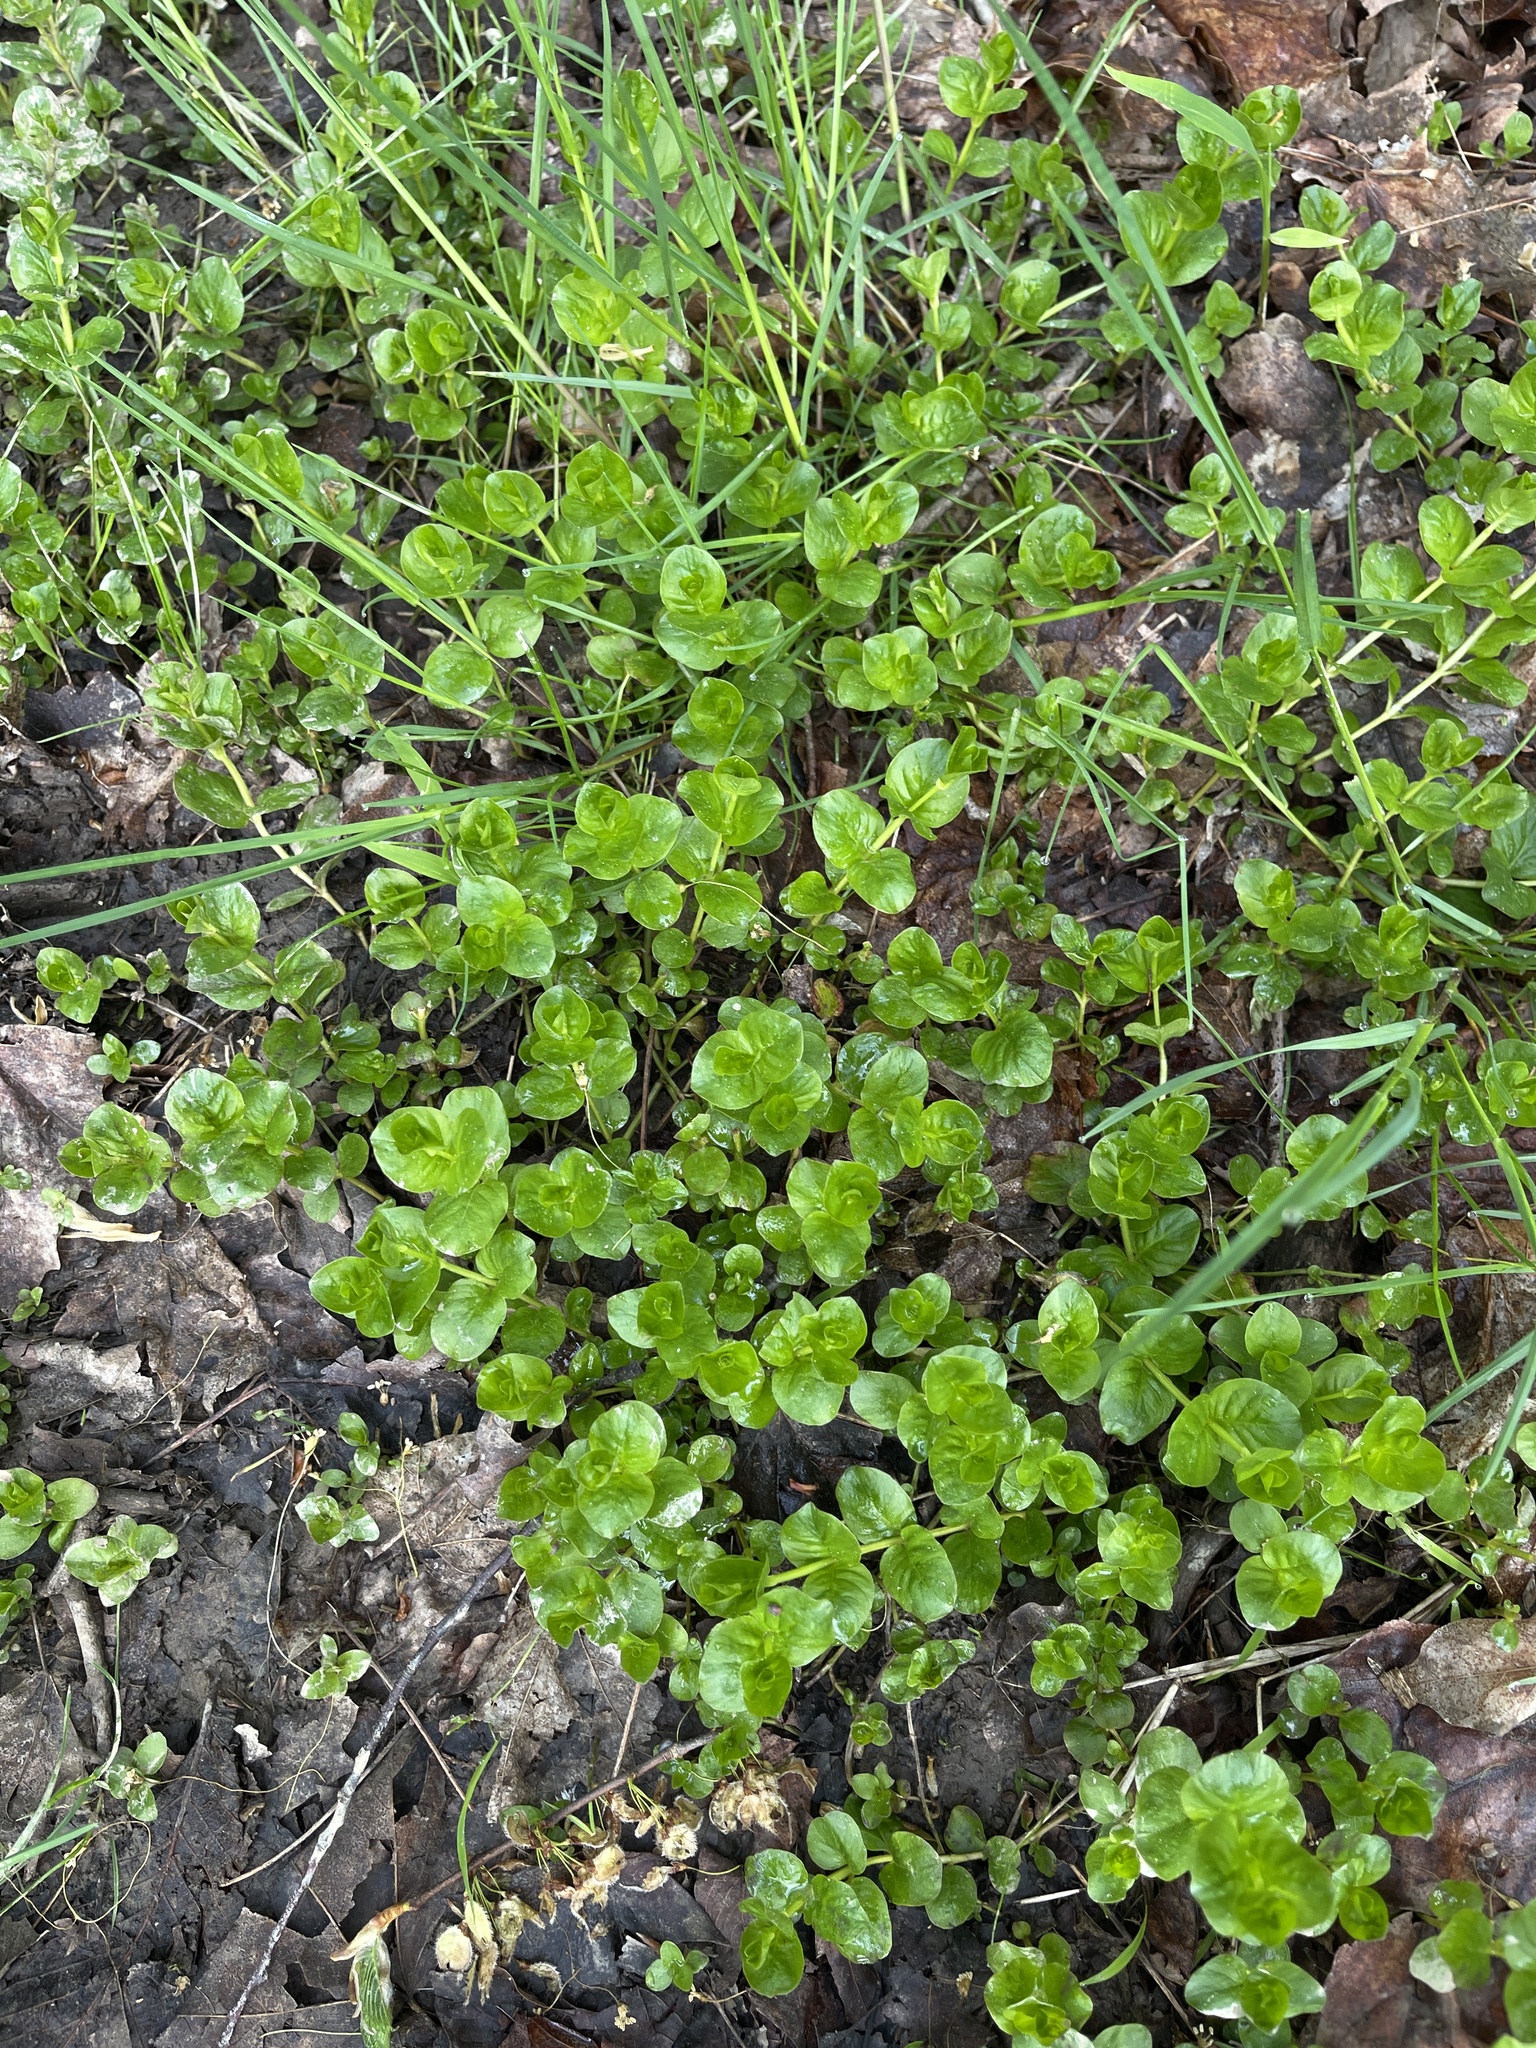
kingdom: Plantae
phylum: Tracheophyta
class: Magnoliopsida
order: Ericales
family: Primulaceae
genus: Lysimachia
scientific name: Lysimachia nummularia
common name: Moneywort
